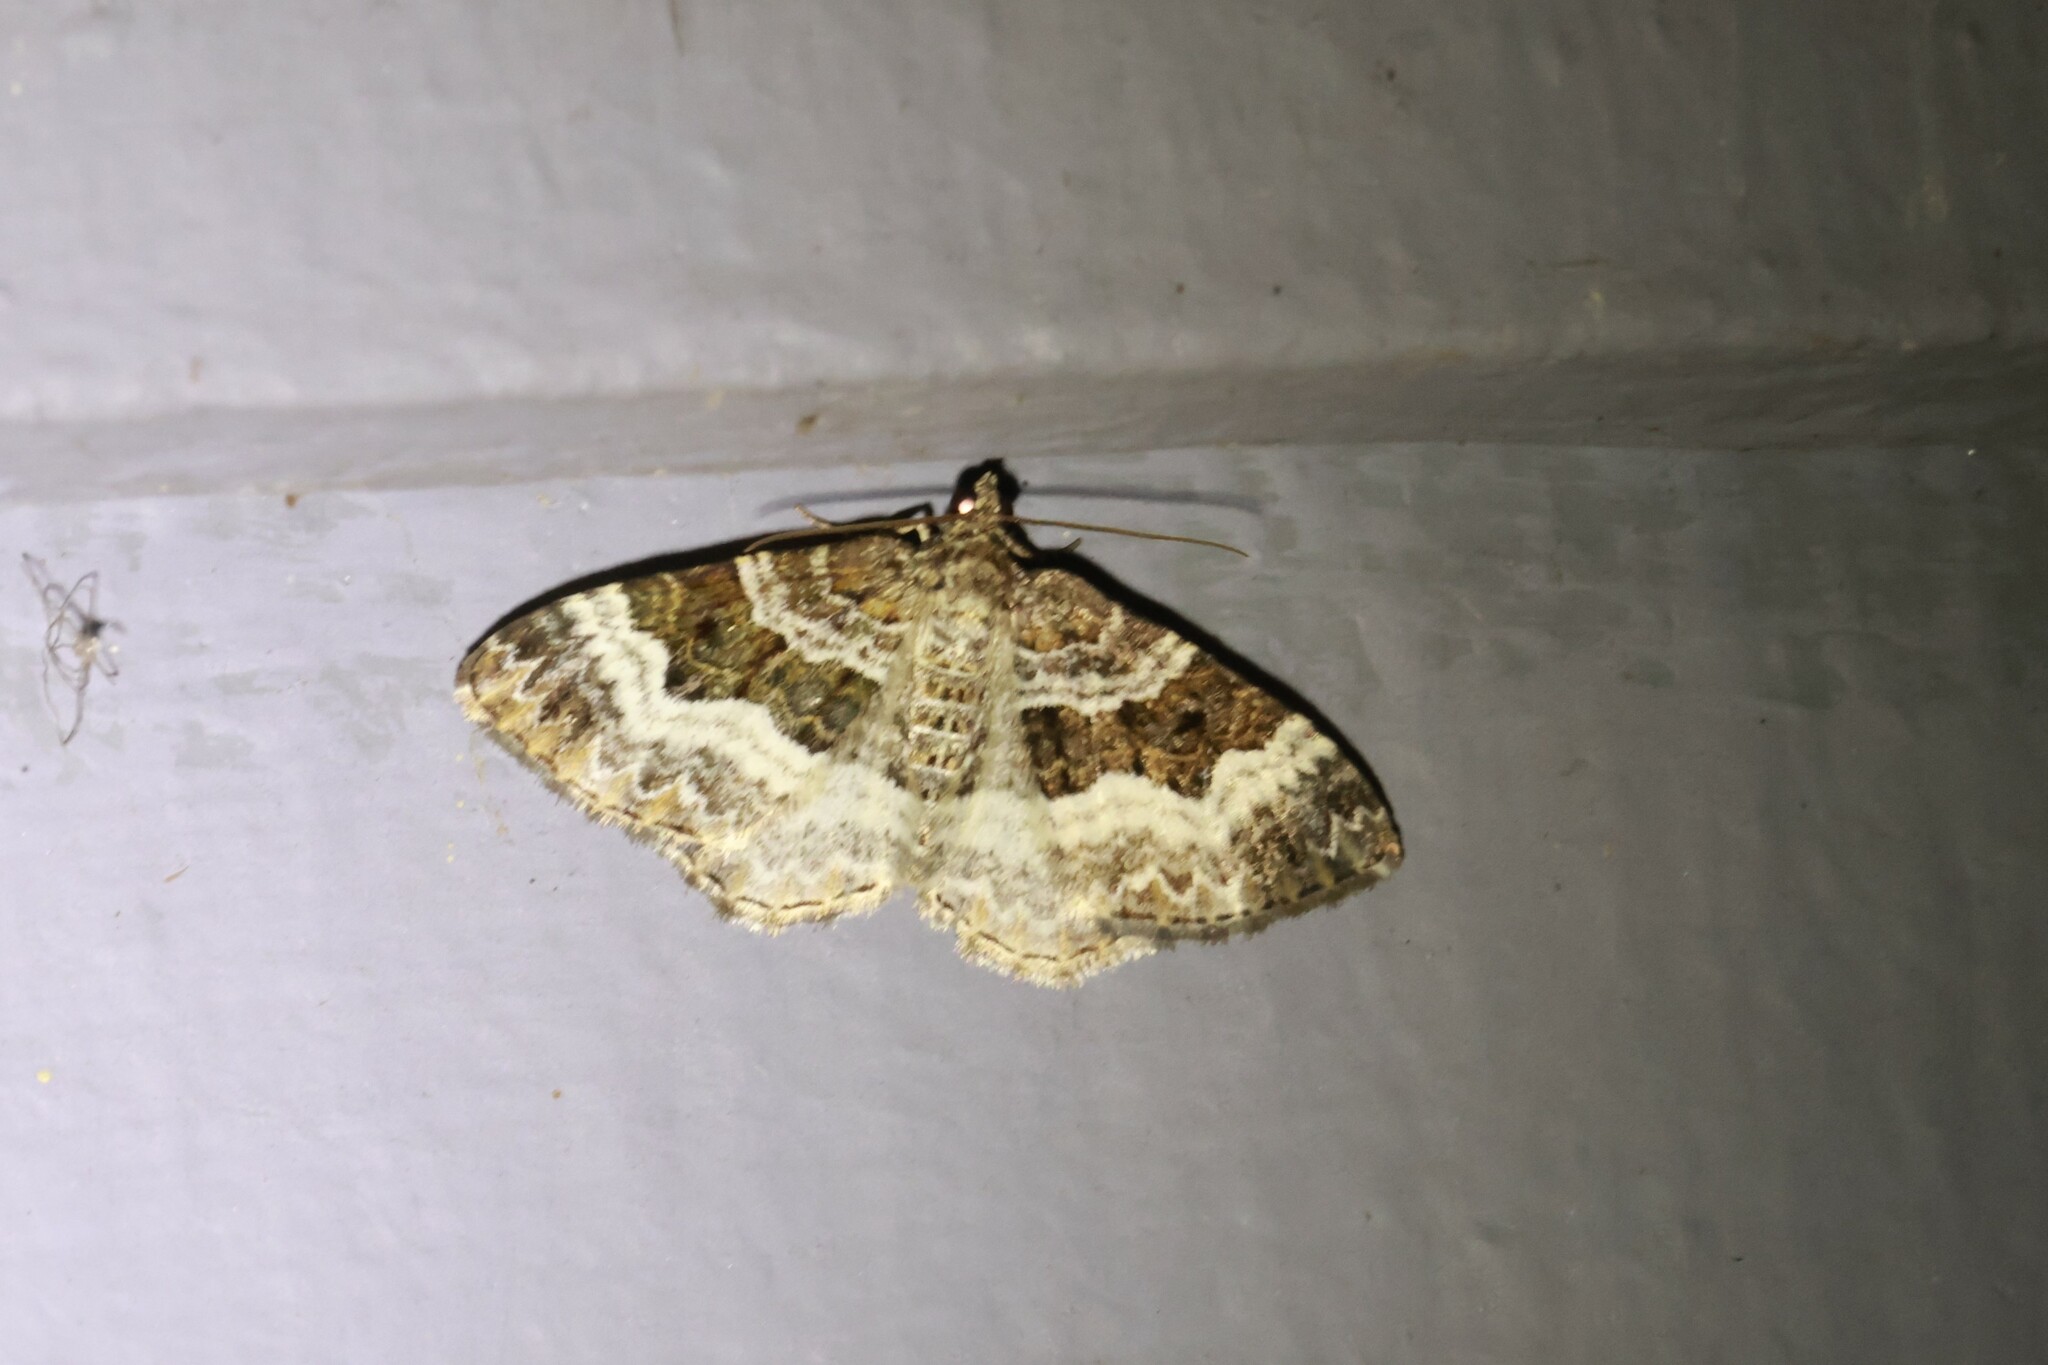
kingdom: Animalia
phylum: Arthropoda
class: Insecta
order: Lepidoptera
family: Geometridae
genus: Epirrhoe
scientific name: Epirrhoe alternata
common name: Common carpet
